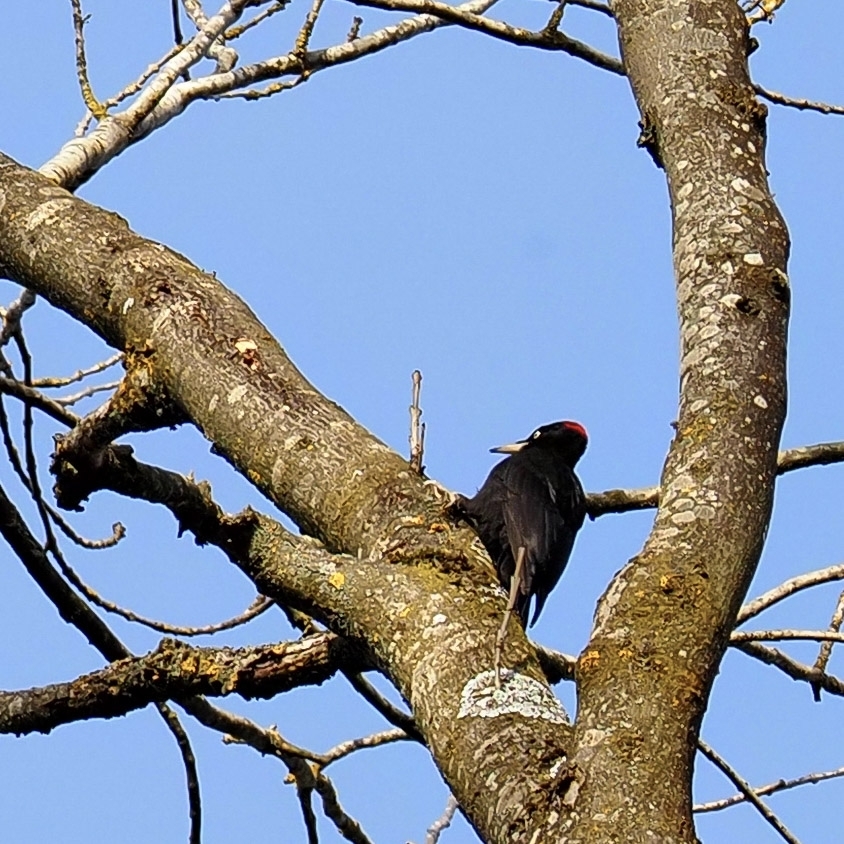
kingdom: Animalia
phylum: Chordata
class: Aves
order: Piciformes
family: Picidae
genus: Dryocopus
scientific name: Dryocopus martius
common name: Black woodpecker
